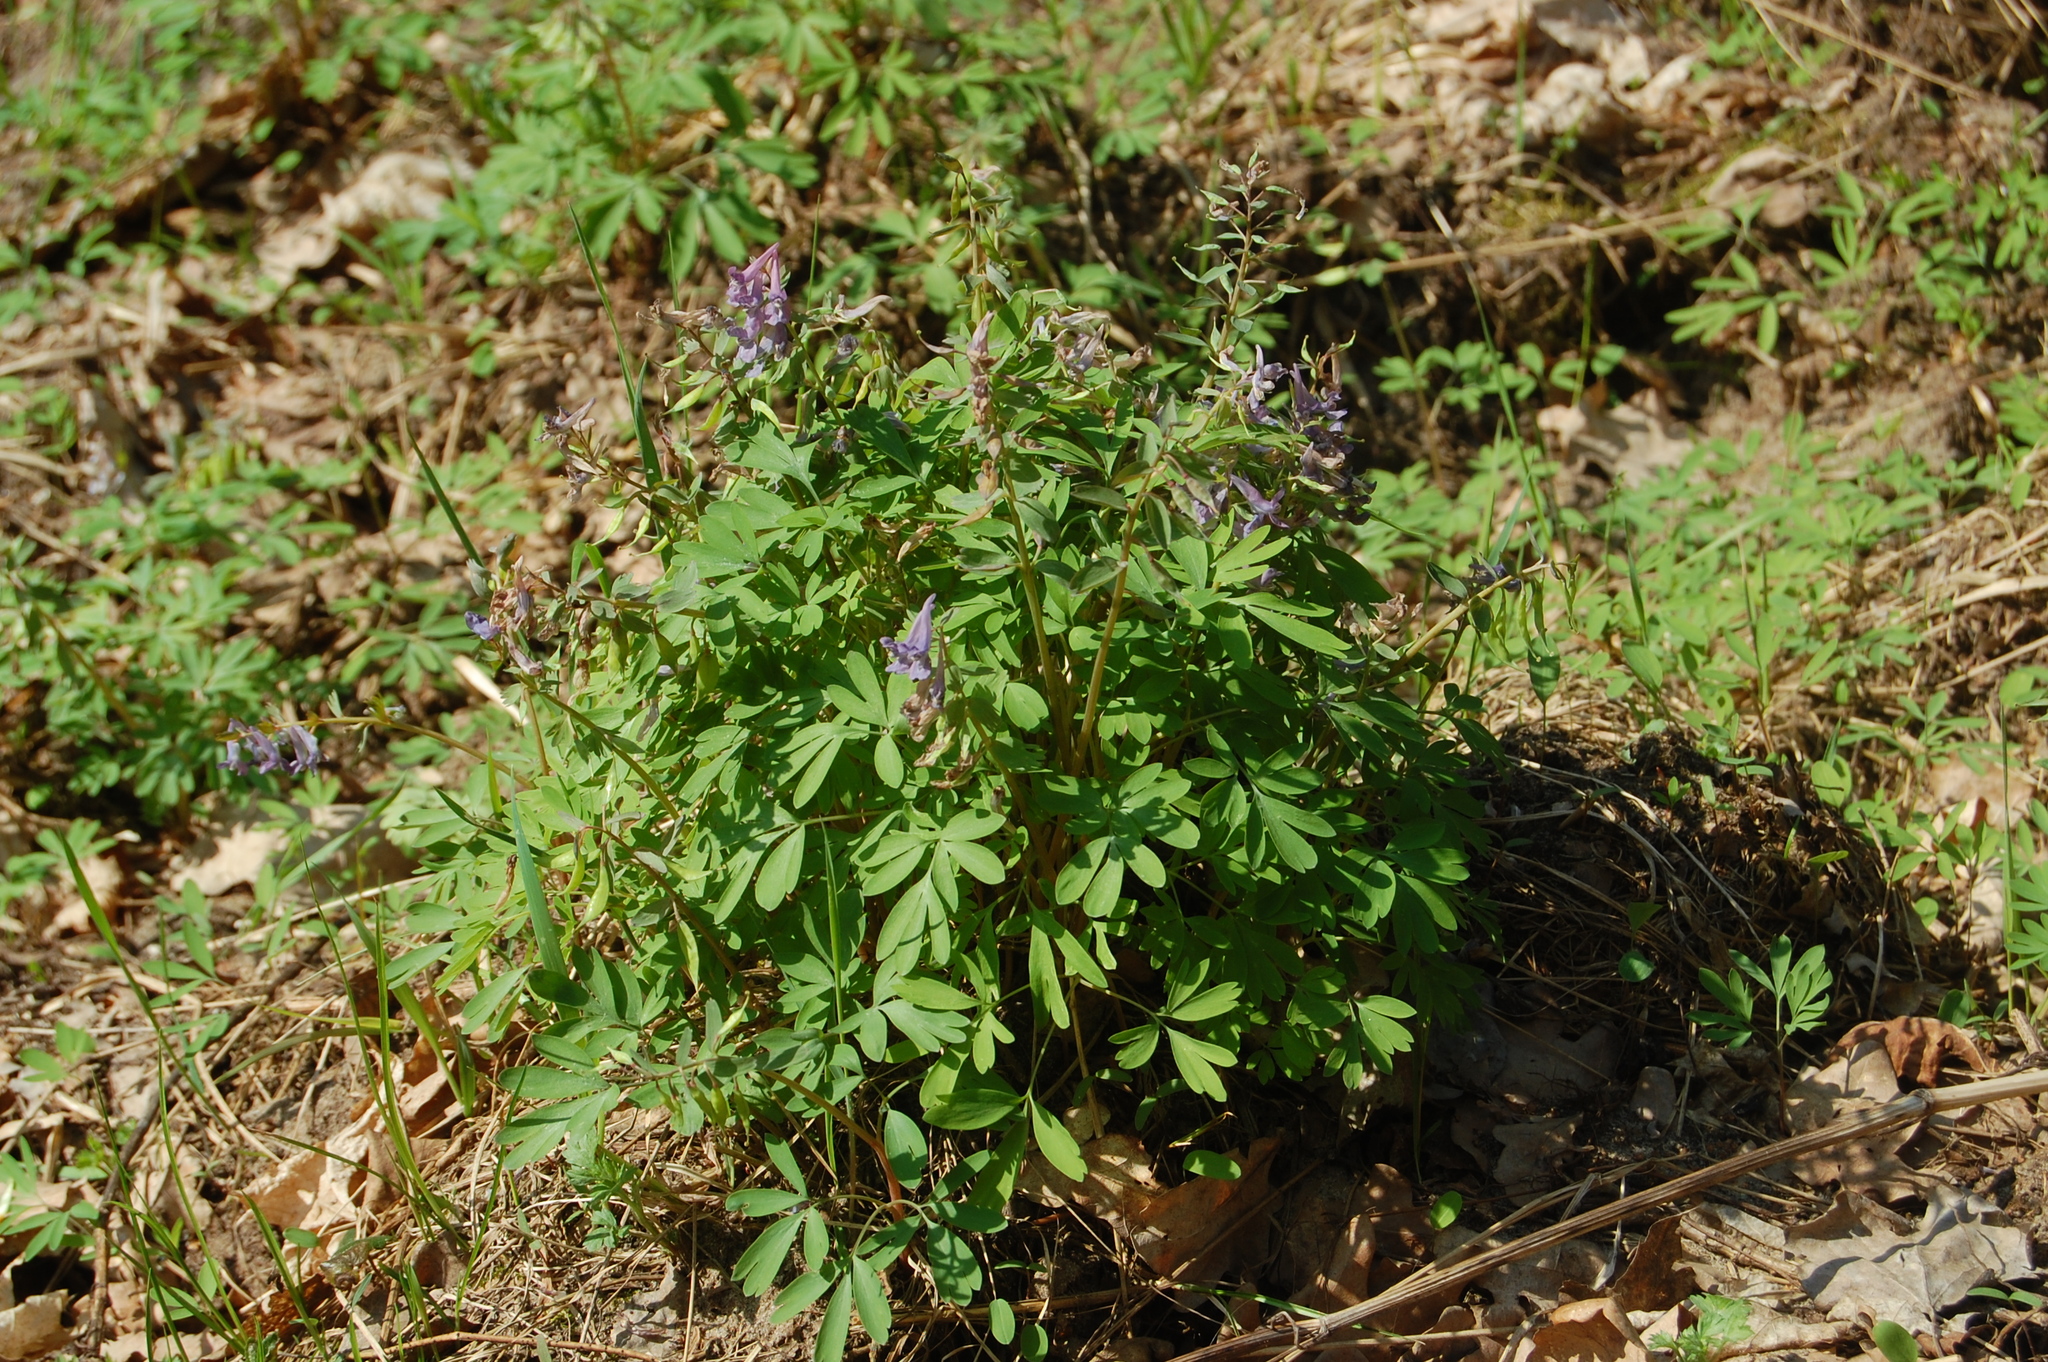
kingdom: Plantae
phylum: Tracheophyta
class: Magnoliopsida
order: Ranunculales
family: Papaveraceae
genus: Corydalis
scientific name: Corydalis solida
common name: Bird-in-a-bush
